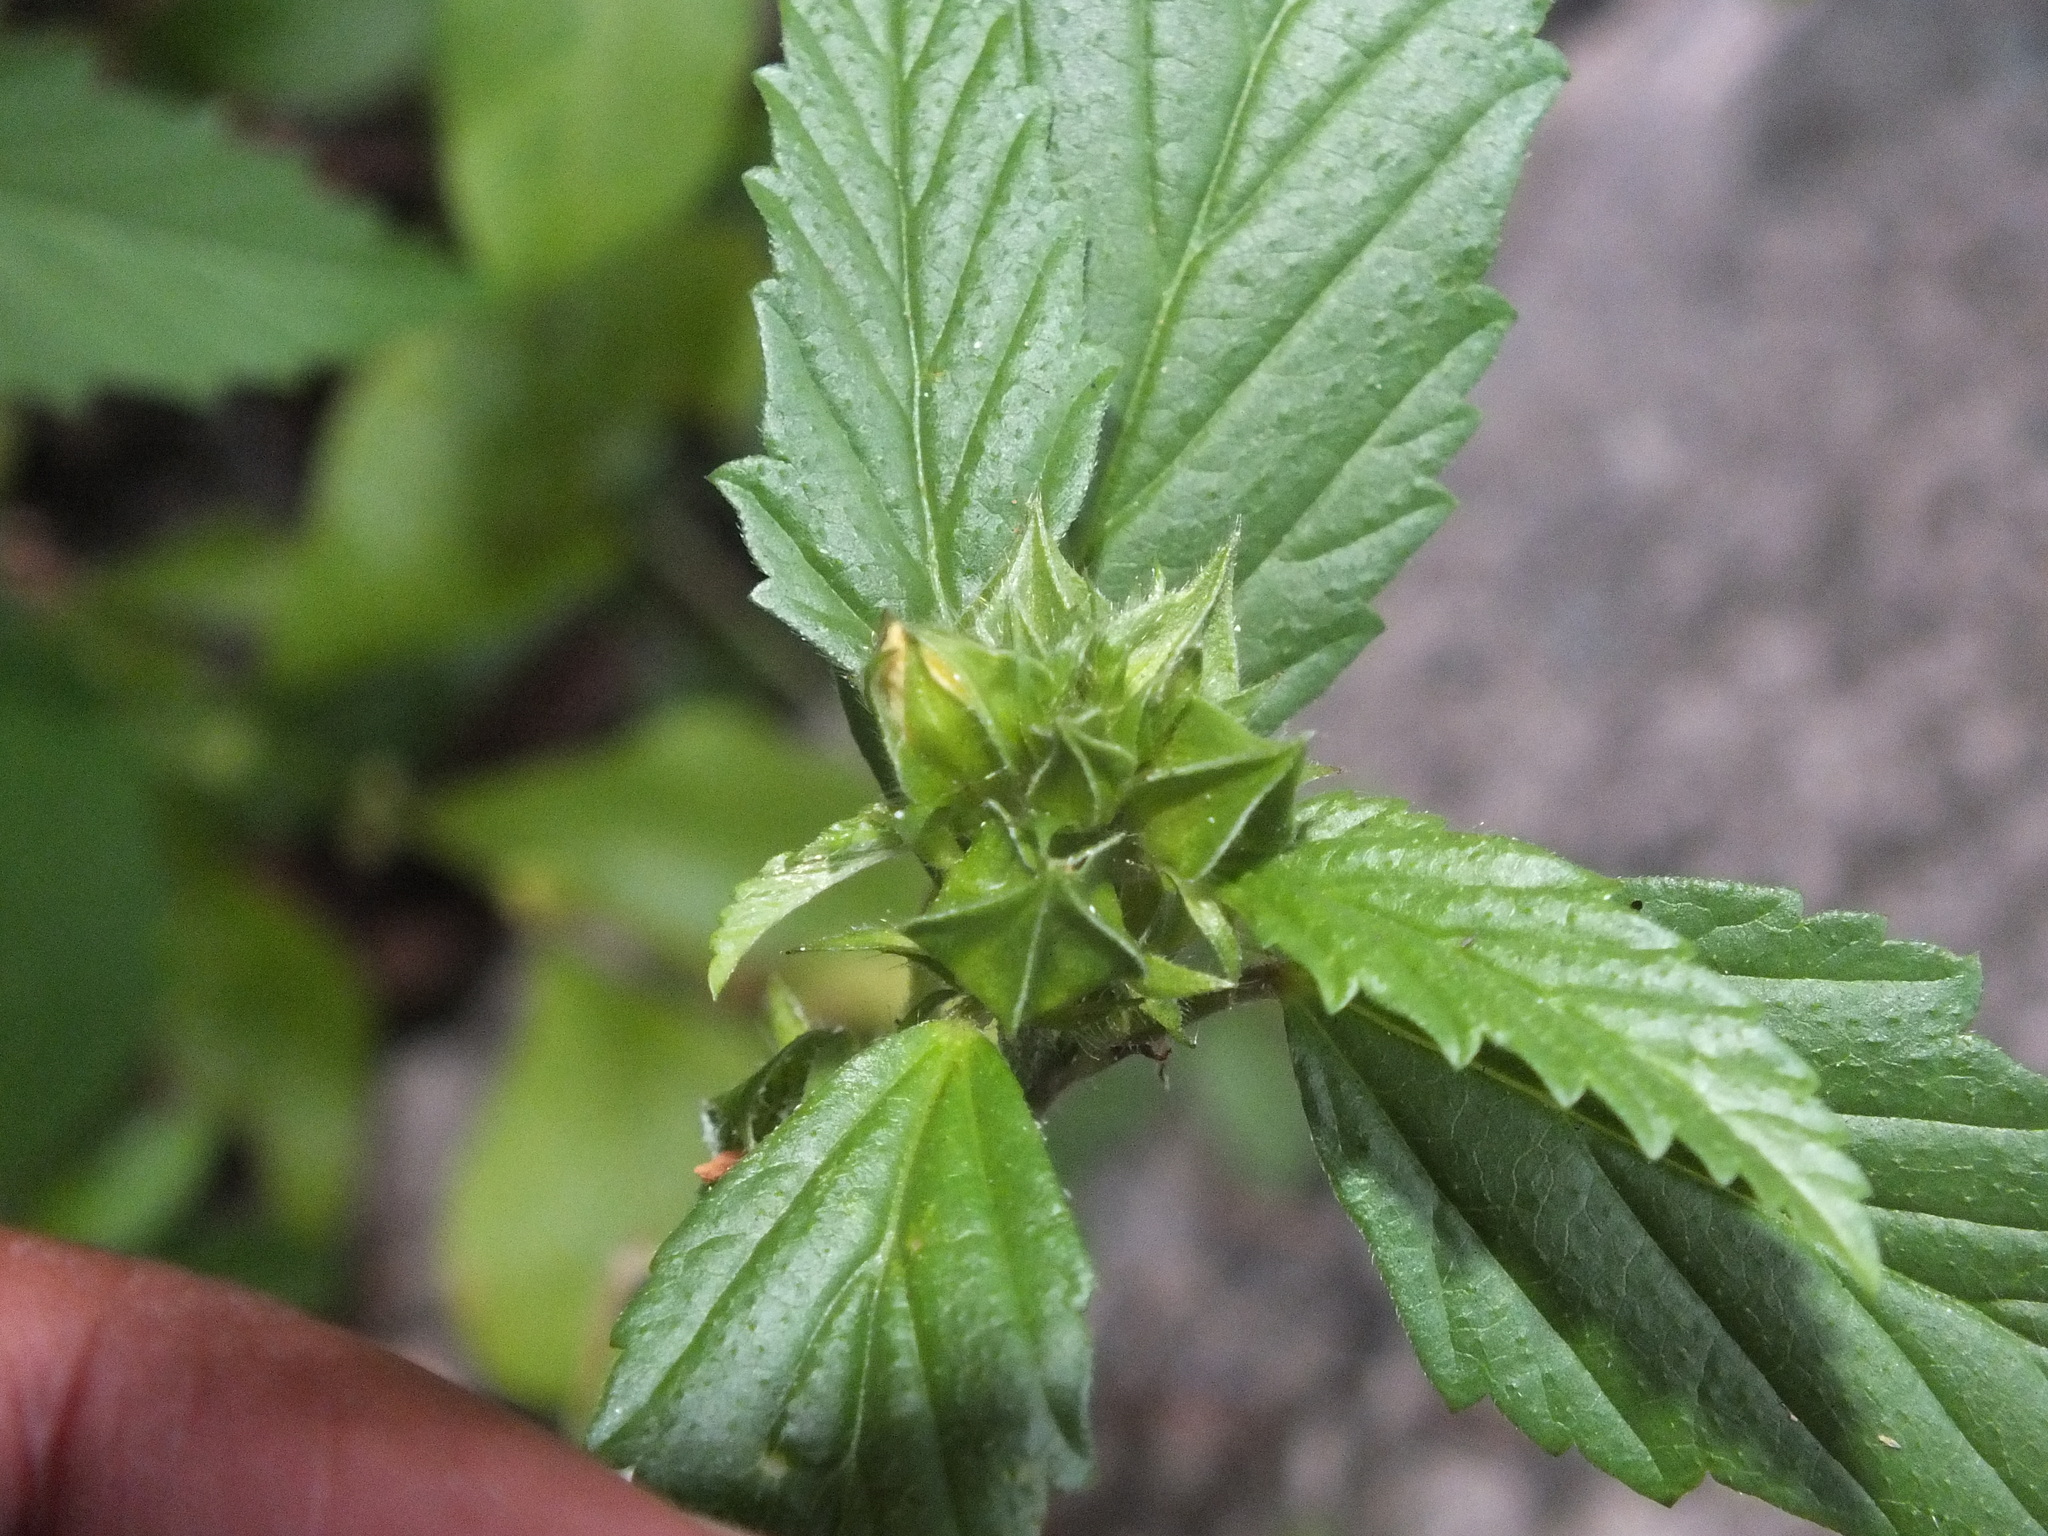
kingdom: Plantae
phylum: Tracheophyta
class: Magnoliopsida
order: Malvales
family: Malvaceae
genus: Malvastrum
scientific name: Malvastrum coromandelianum
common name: Threelobe false mallow
